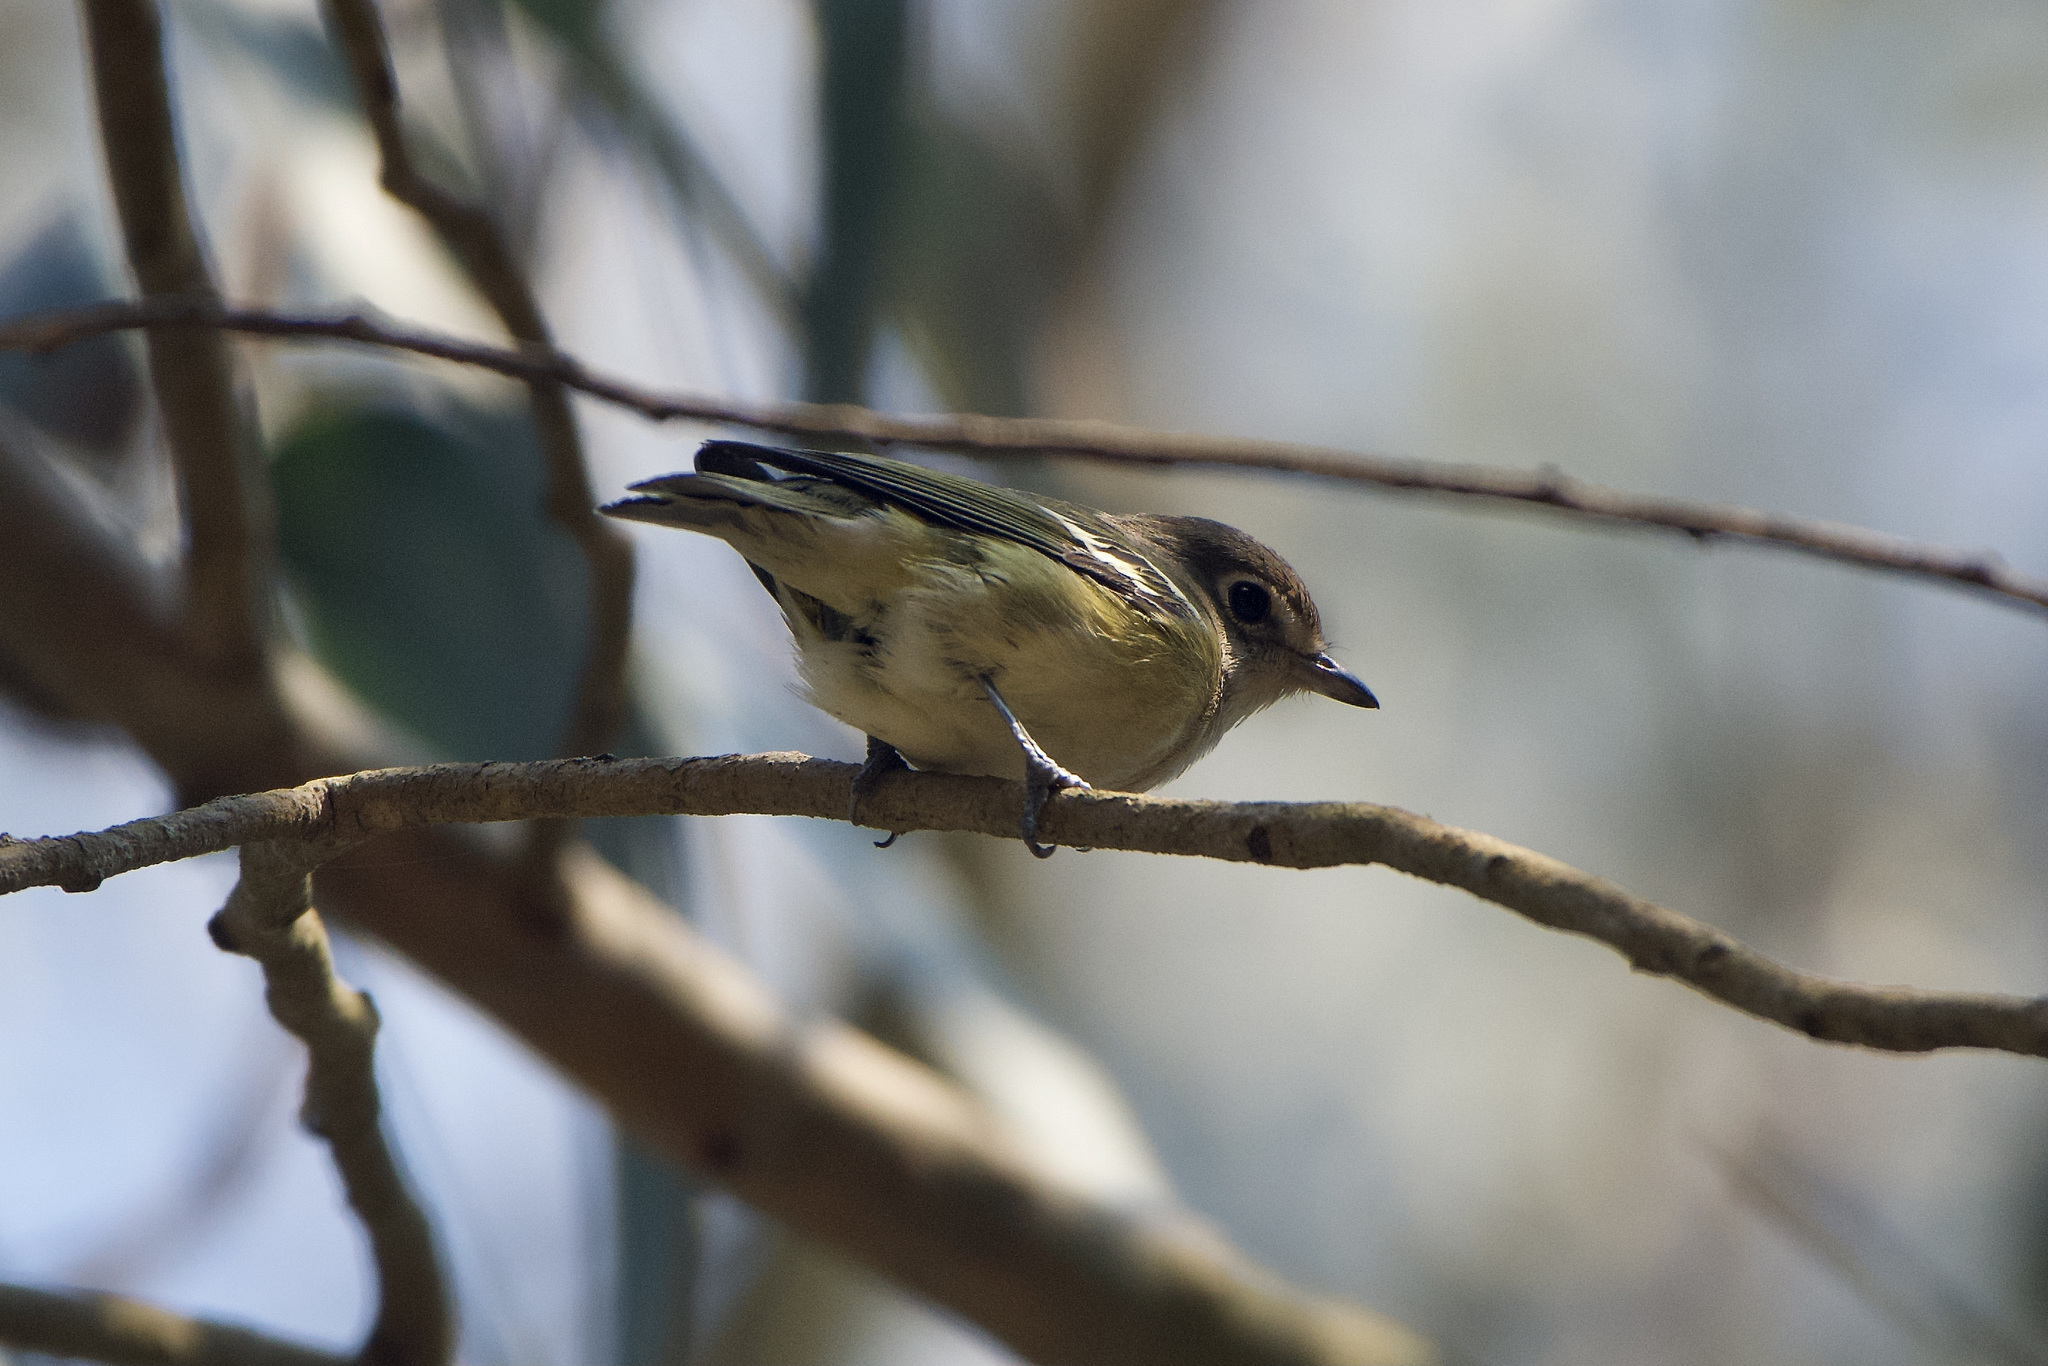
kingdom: Animalia
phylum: Chordata
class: Aves
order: Passeriformes
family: Vireonidae
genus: Vireo
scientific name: Vireo cassinii
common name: Cassin's vireo
